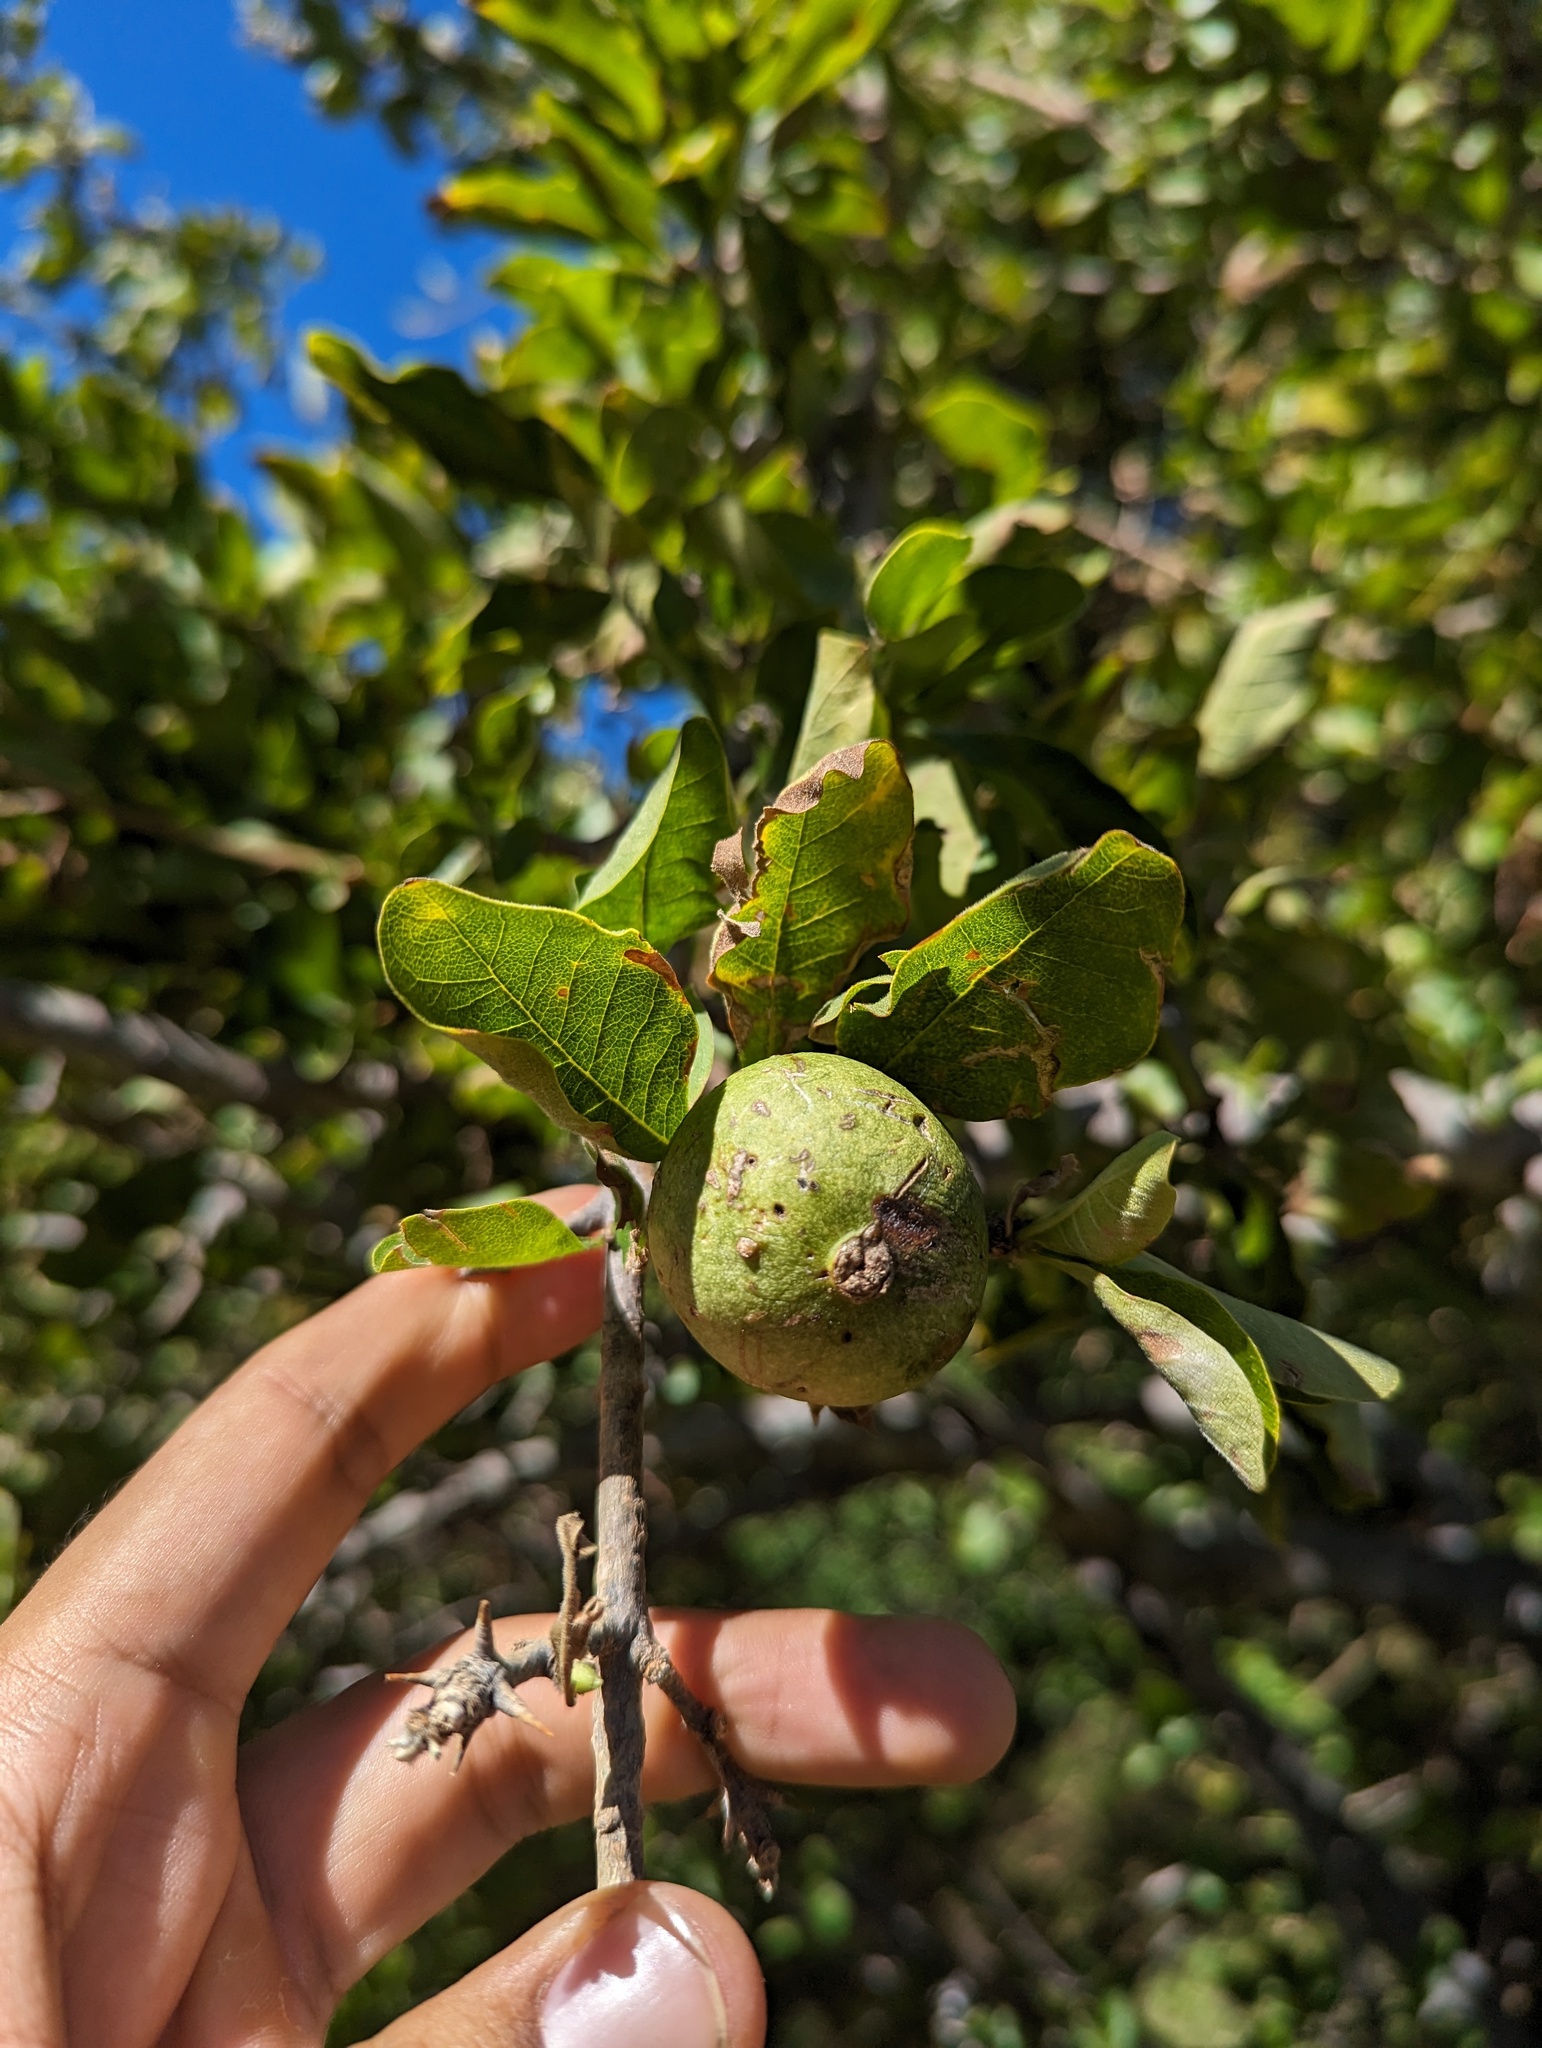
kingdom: Plantae
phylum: Tracheophyta
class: Magnoliopsida
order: Gentianales
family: Rubiaceae
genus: Randia
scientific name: Randia capitata
